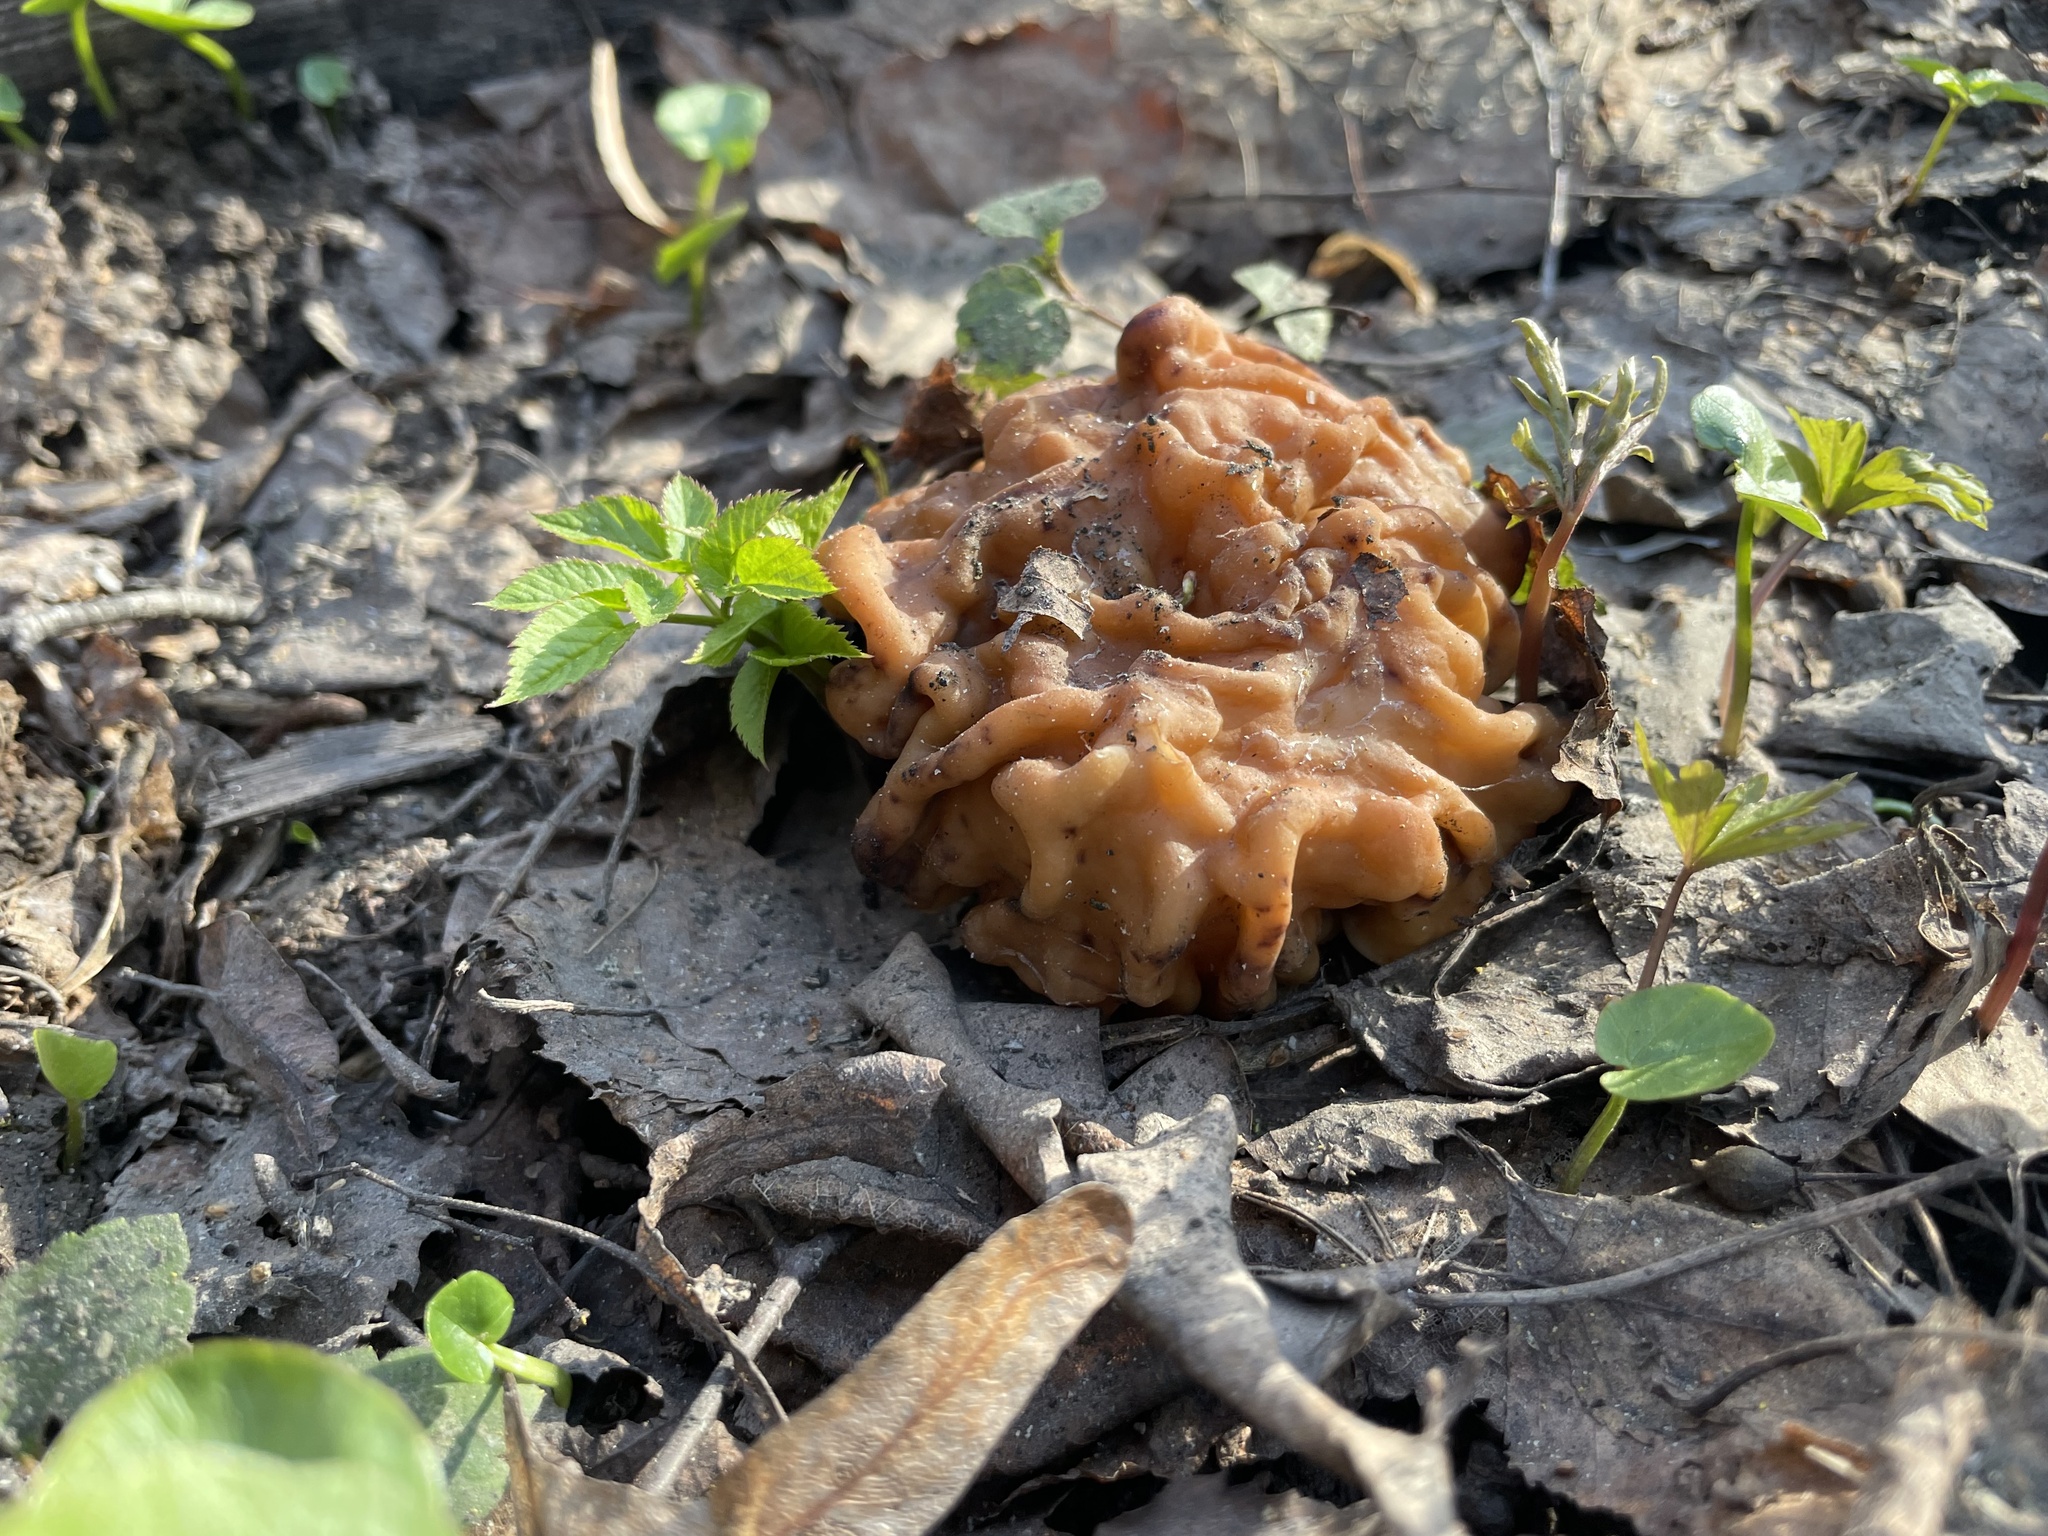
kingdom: Fungi
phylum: Ascomycota
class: Pezizomycetes
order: Pezizales
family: Discinaceae
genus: Gyromitra
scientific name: Gyromitra gigas
